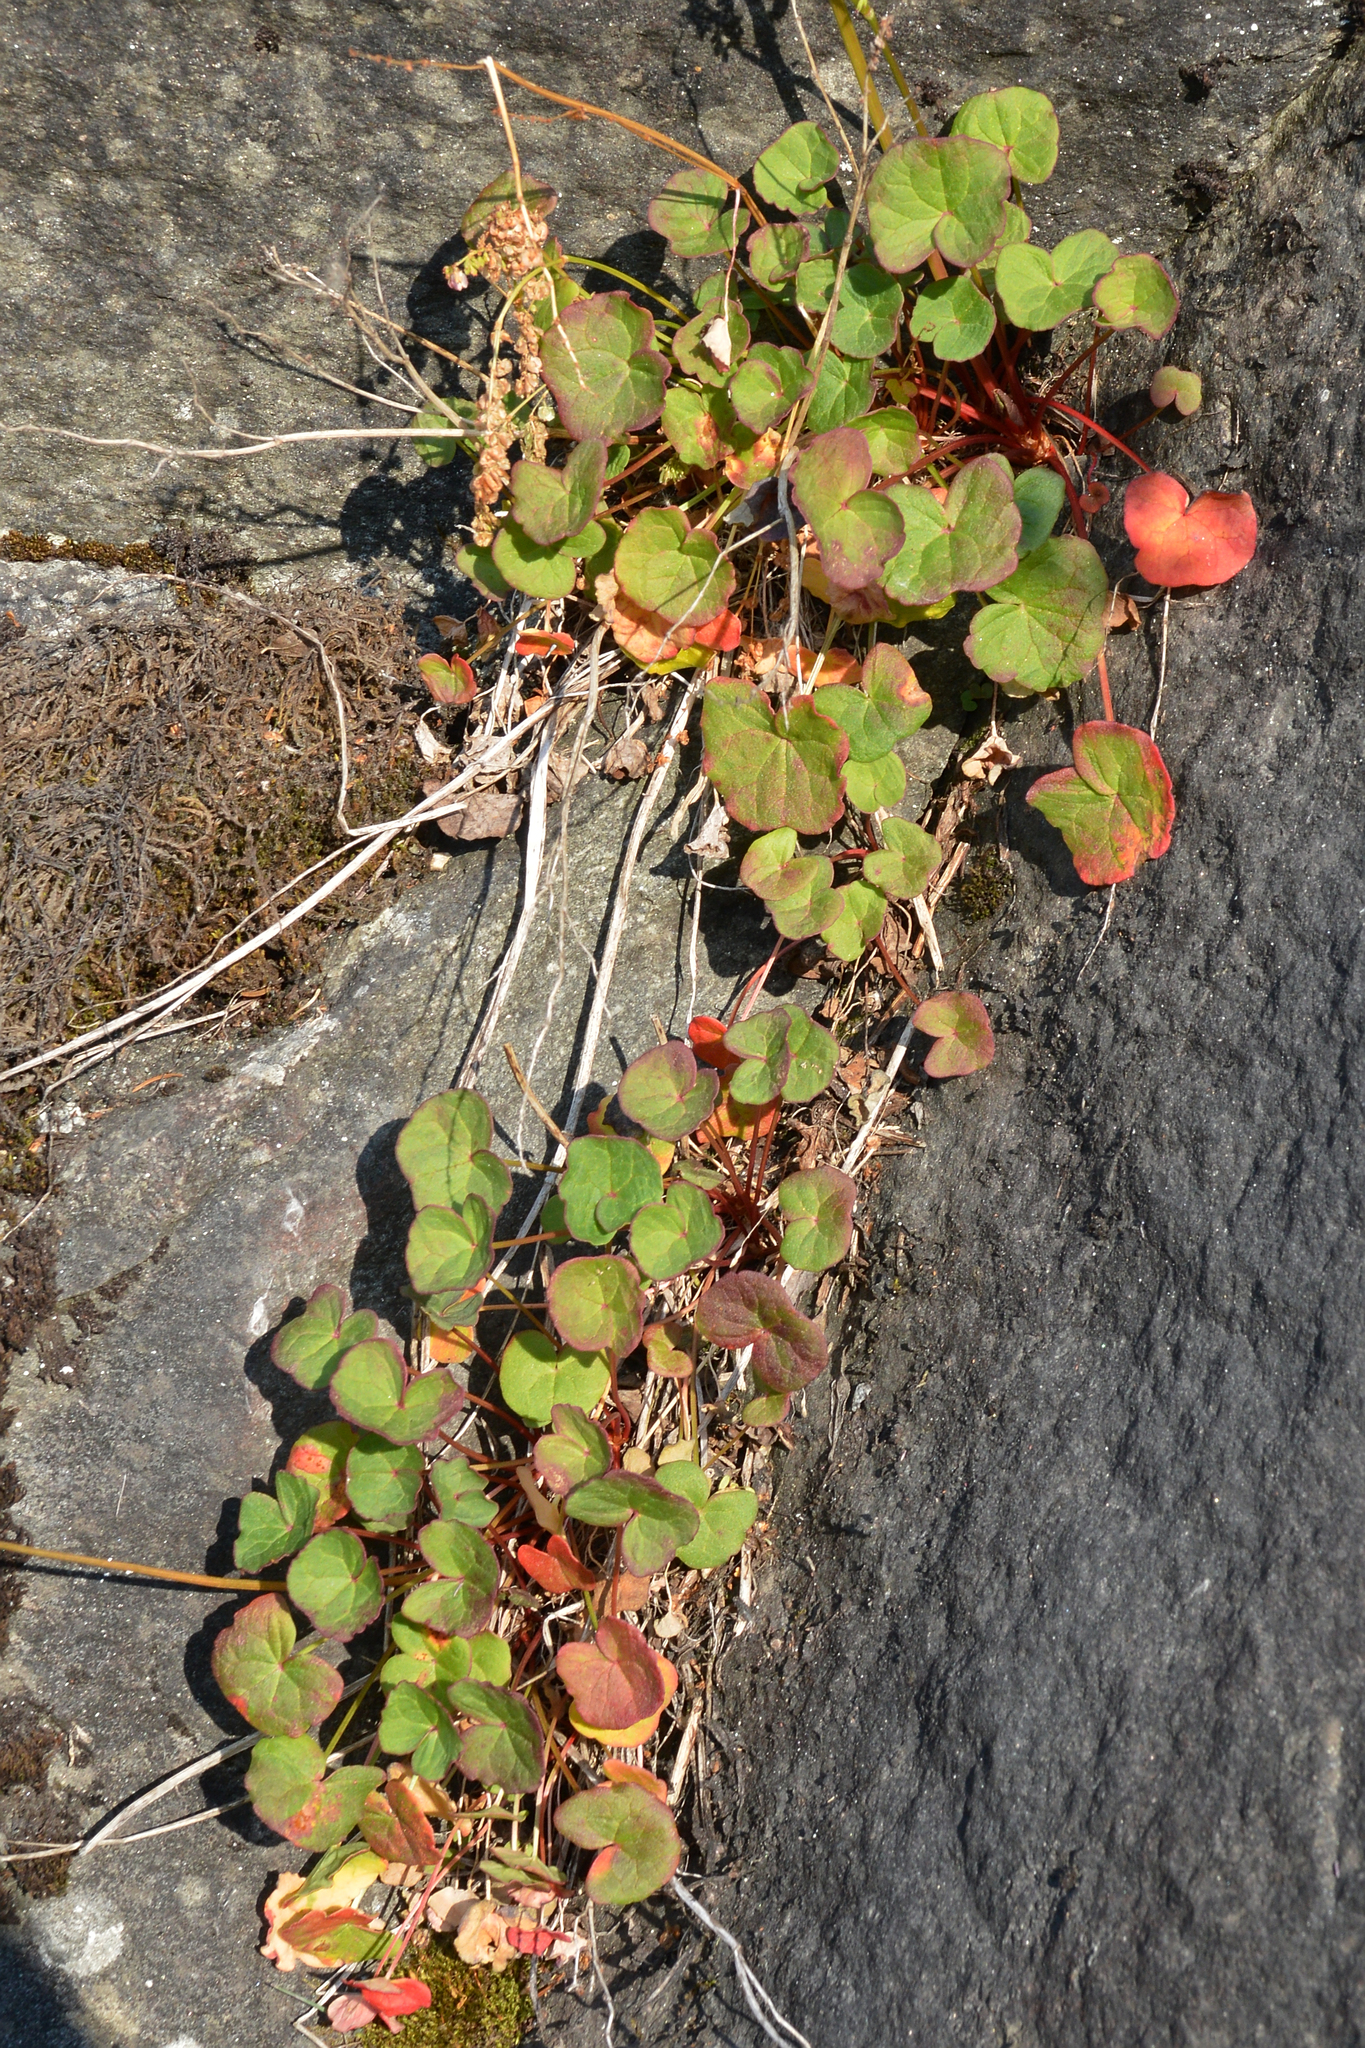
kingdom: Plantae
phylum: Tracheophyta
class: Magnoliopsida
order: Caryophyllales
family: Polygonaceae
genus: Oxyria
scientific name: Oxyria digyna
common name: Alpine mountain-sorrel
